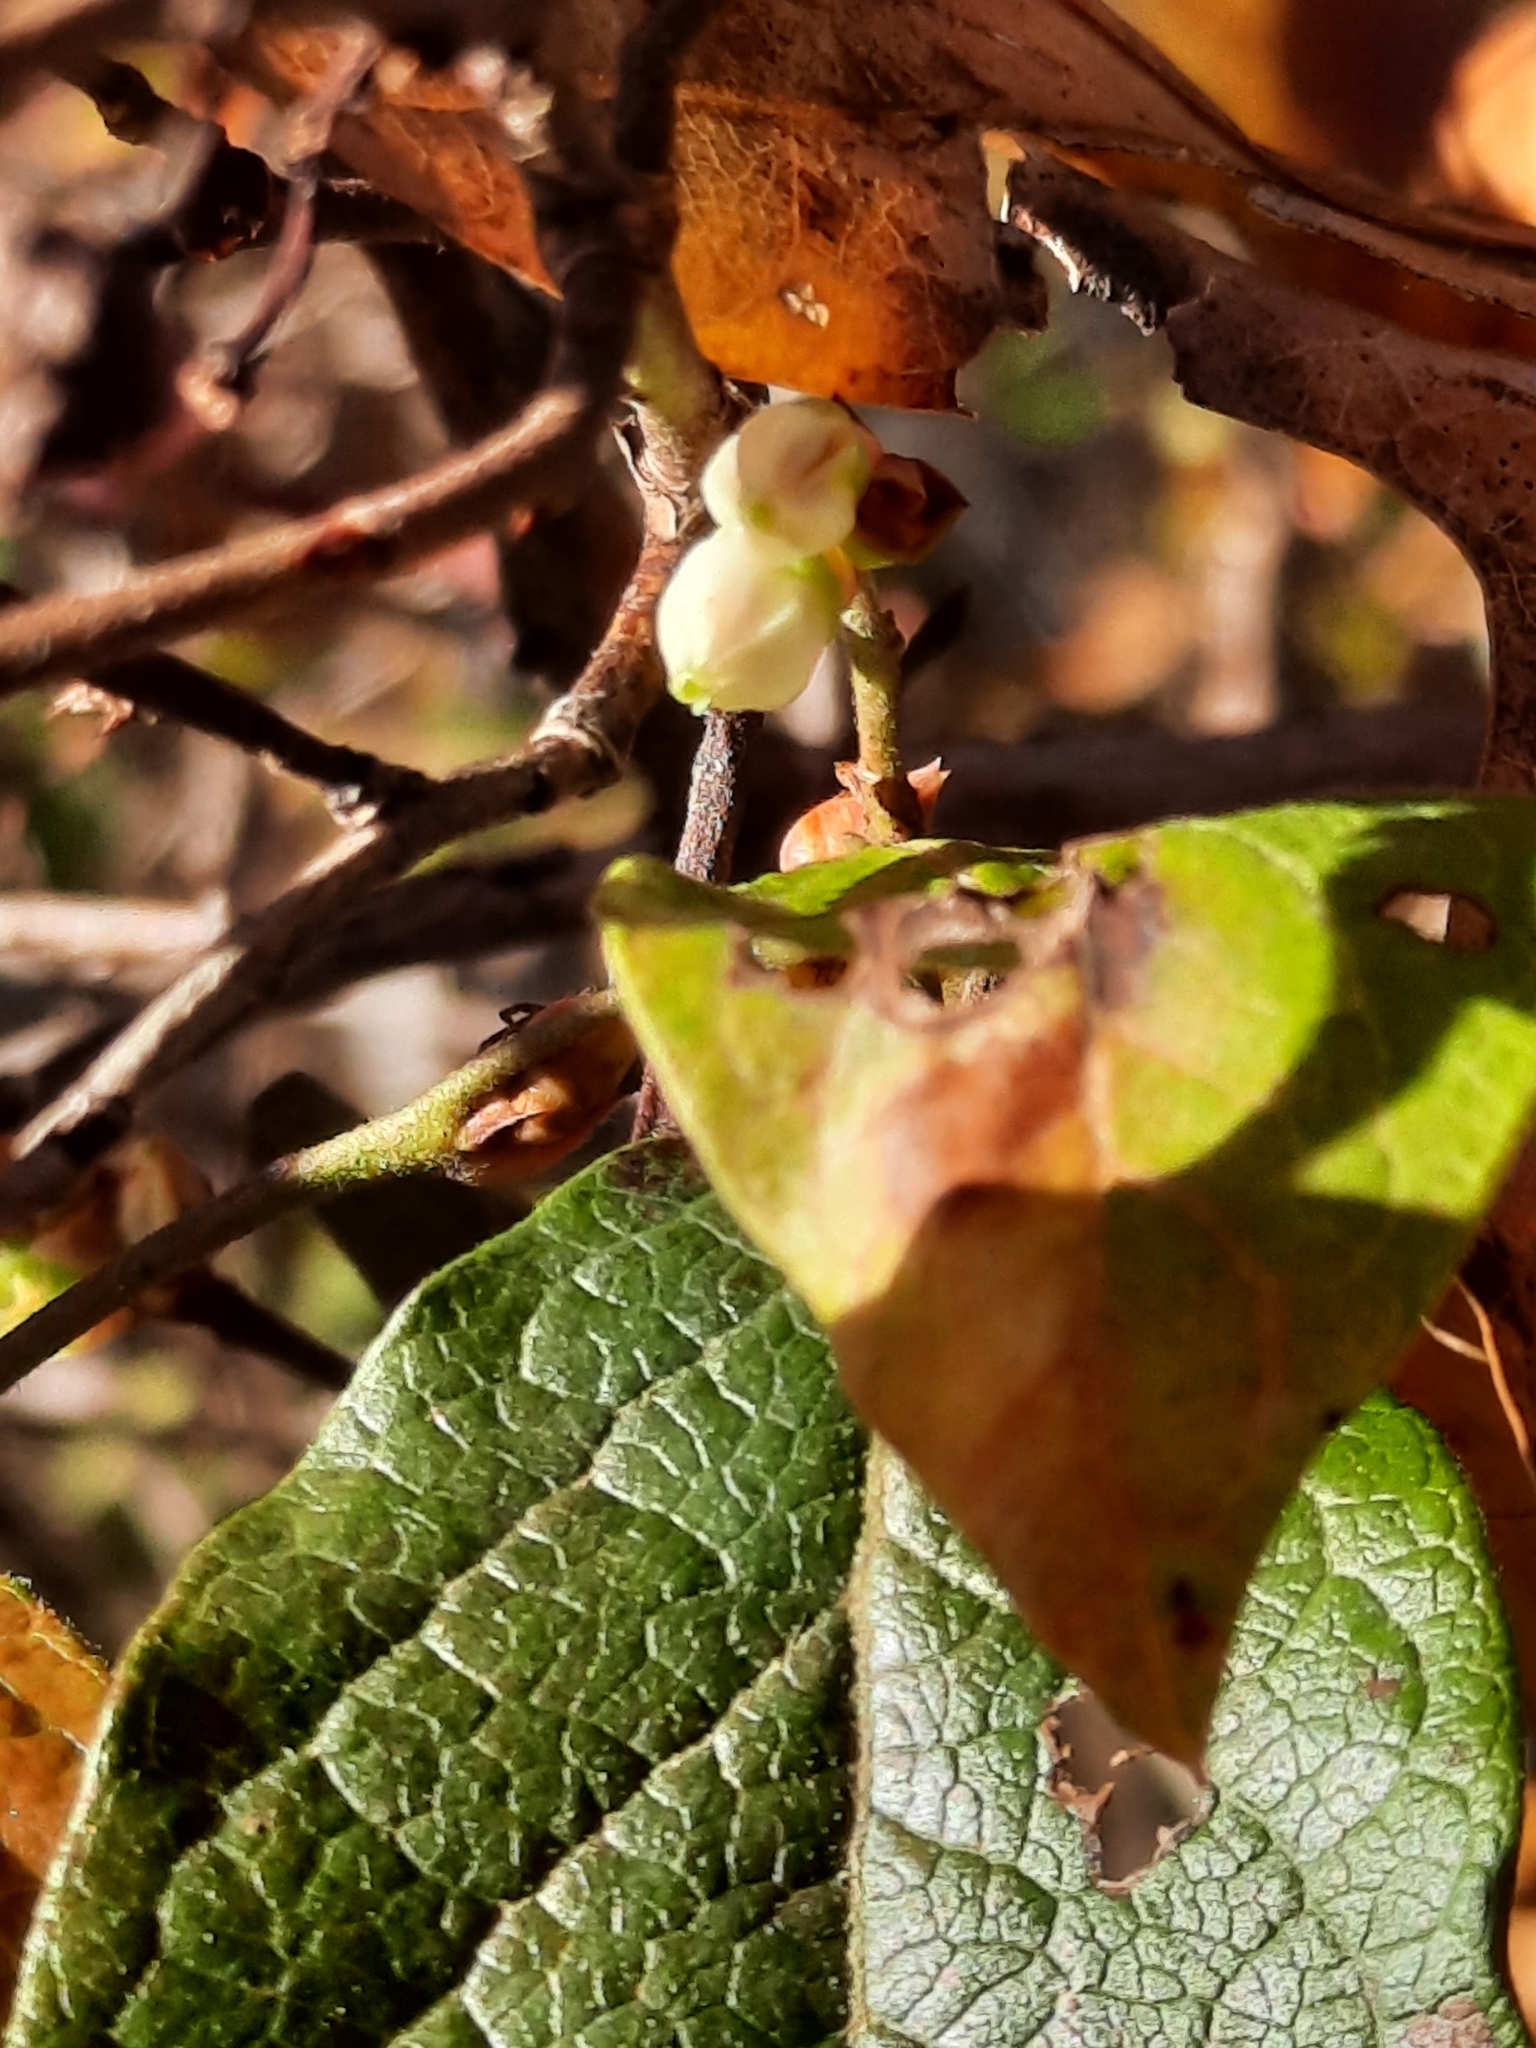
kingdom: Plantae
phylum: Tracheophyta
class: Magnoliopsida
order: Ericales
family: Ericaceae
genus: Vaccinium
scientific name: Vaccinium corymbosum
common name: Blueberry
